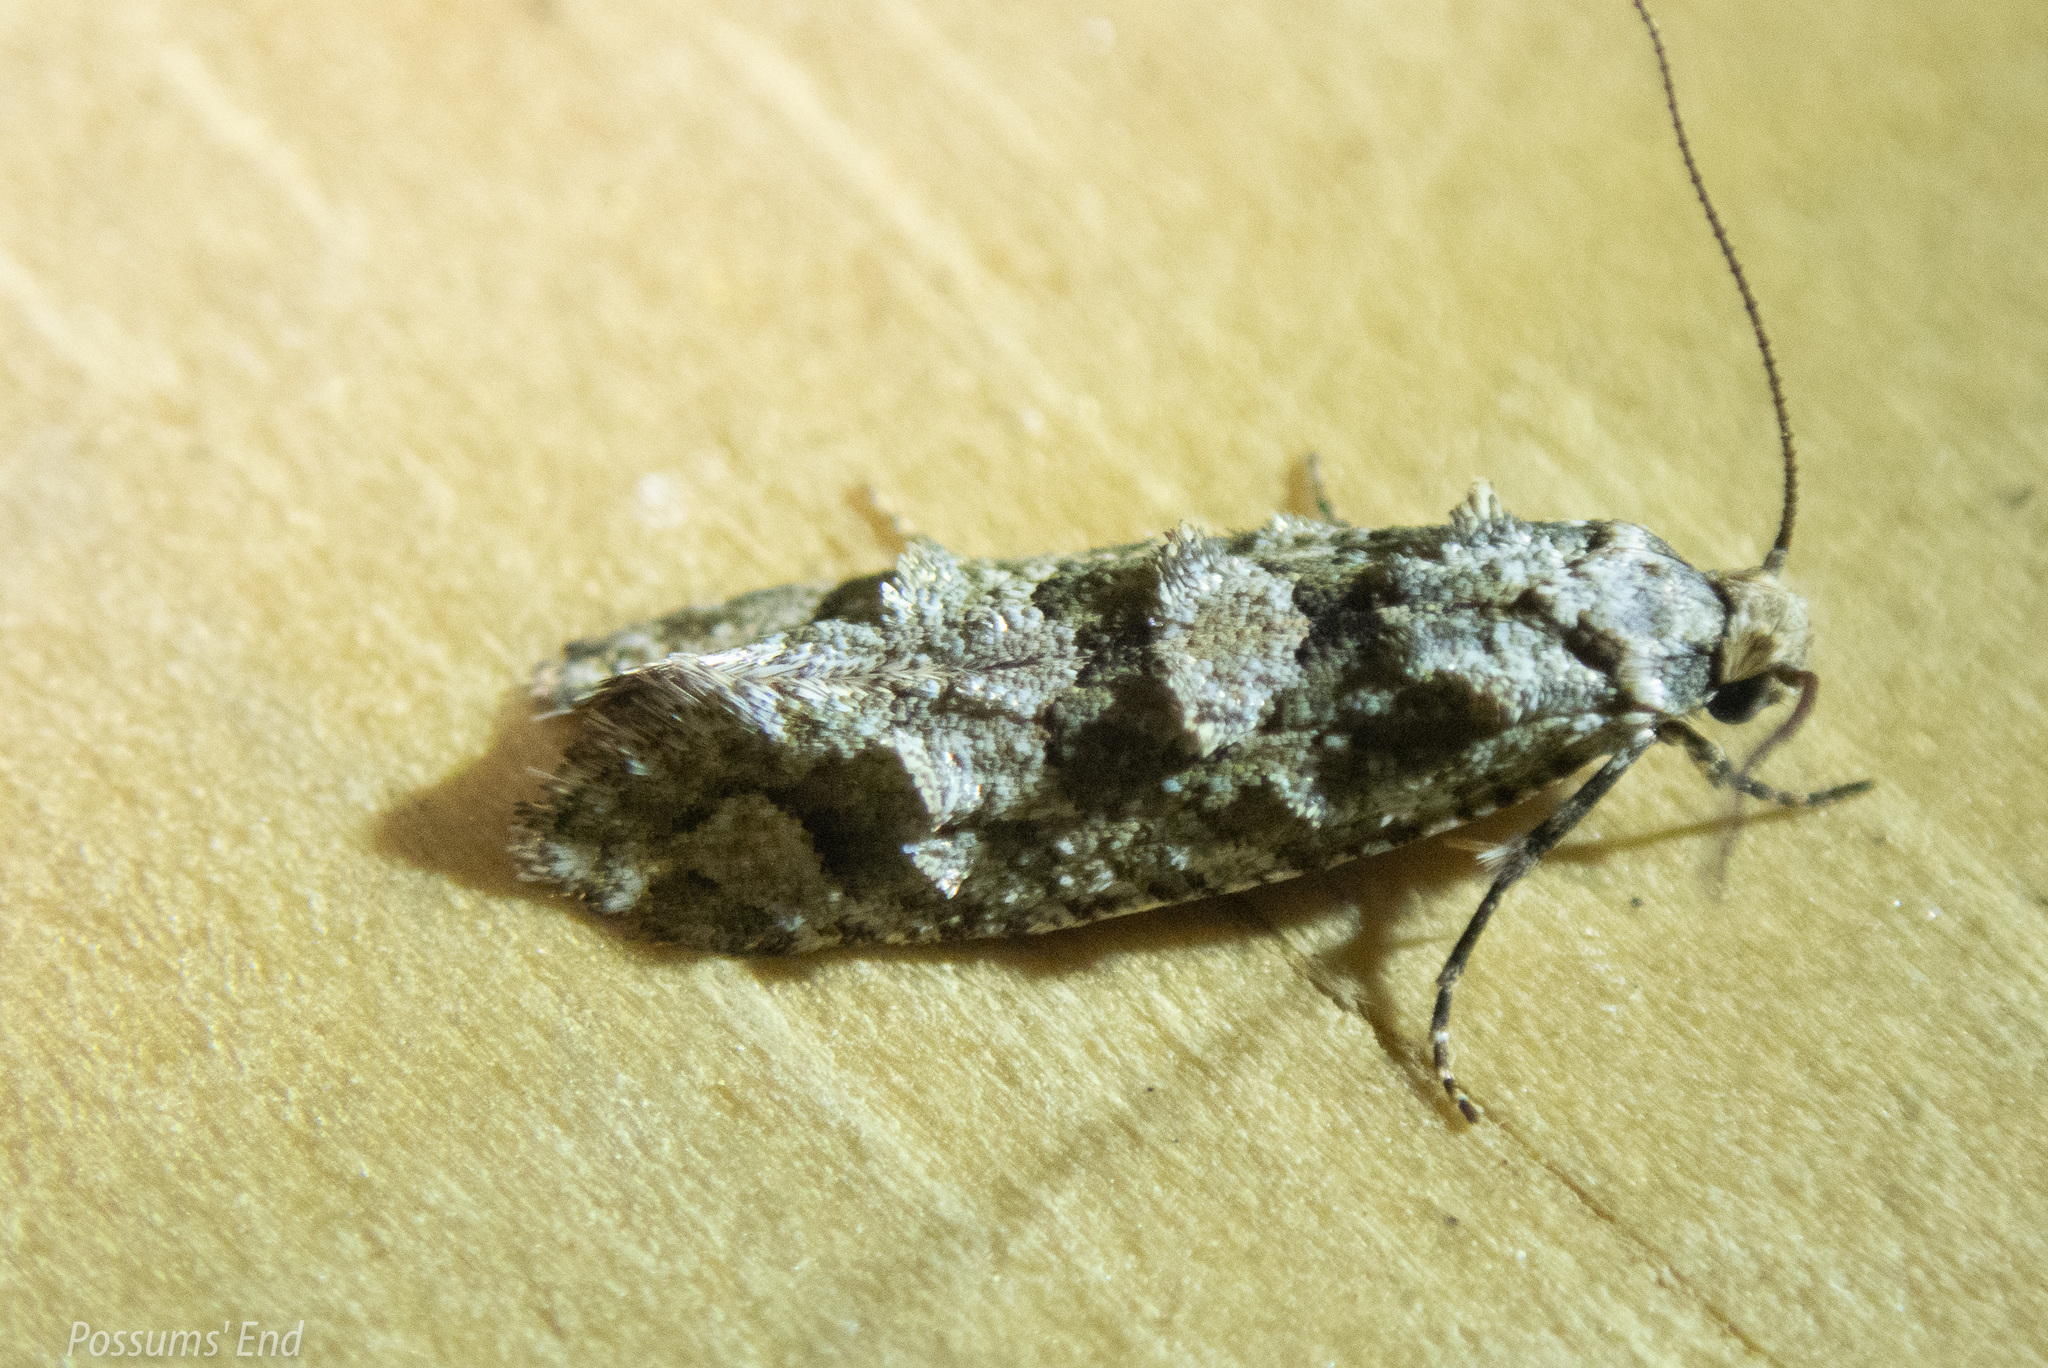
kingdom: Animalia
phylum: Arthropoda
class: Insecta
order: Lepidoptera
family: Tineidae
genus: Lysiphragma
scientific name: Lysiphragma howesii
